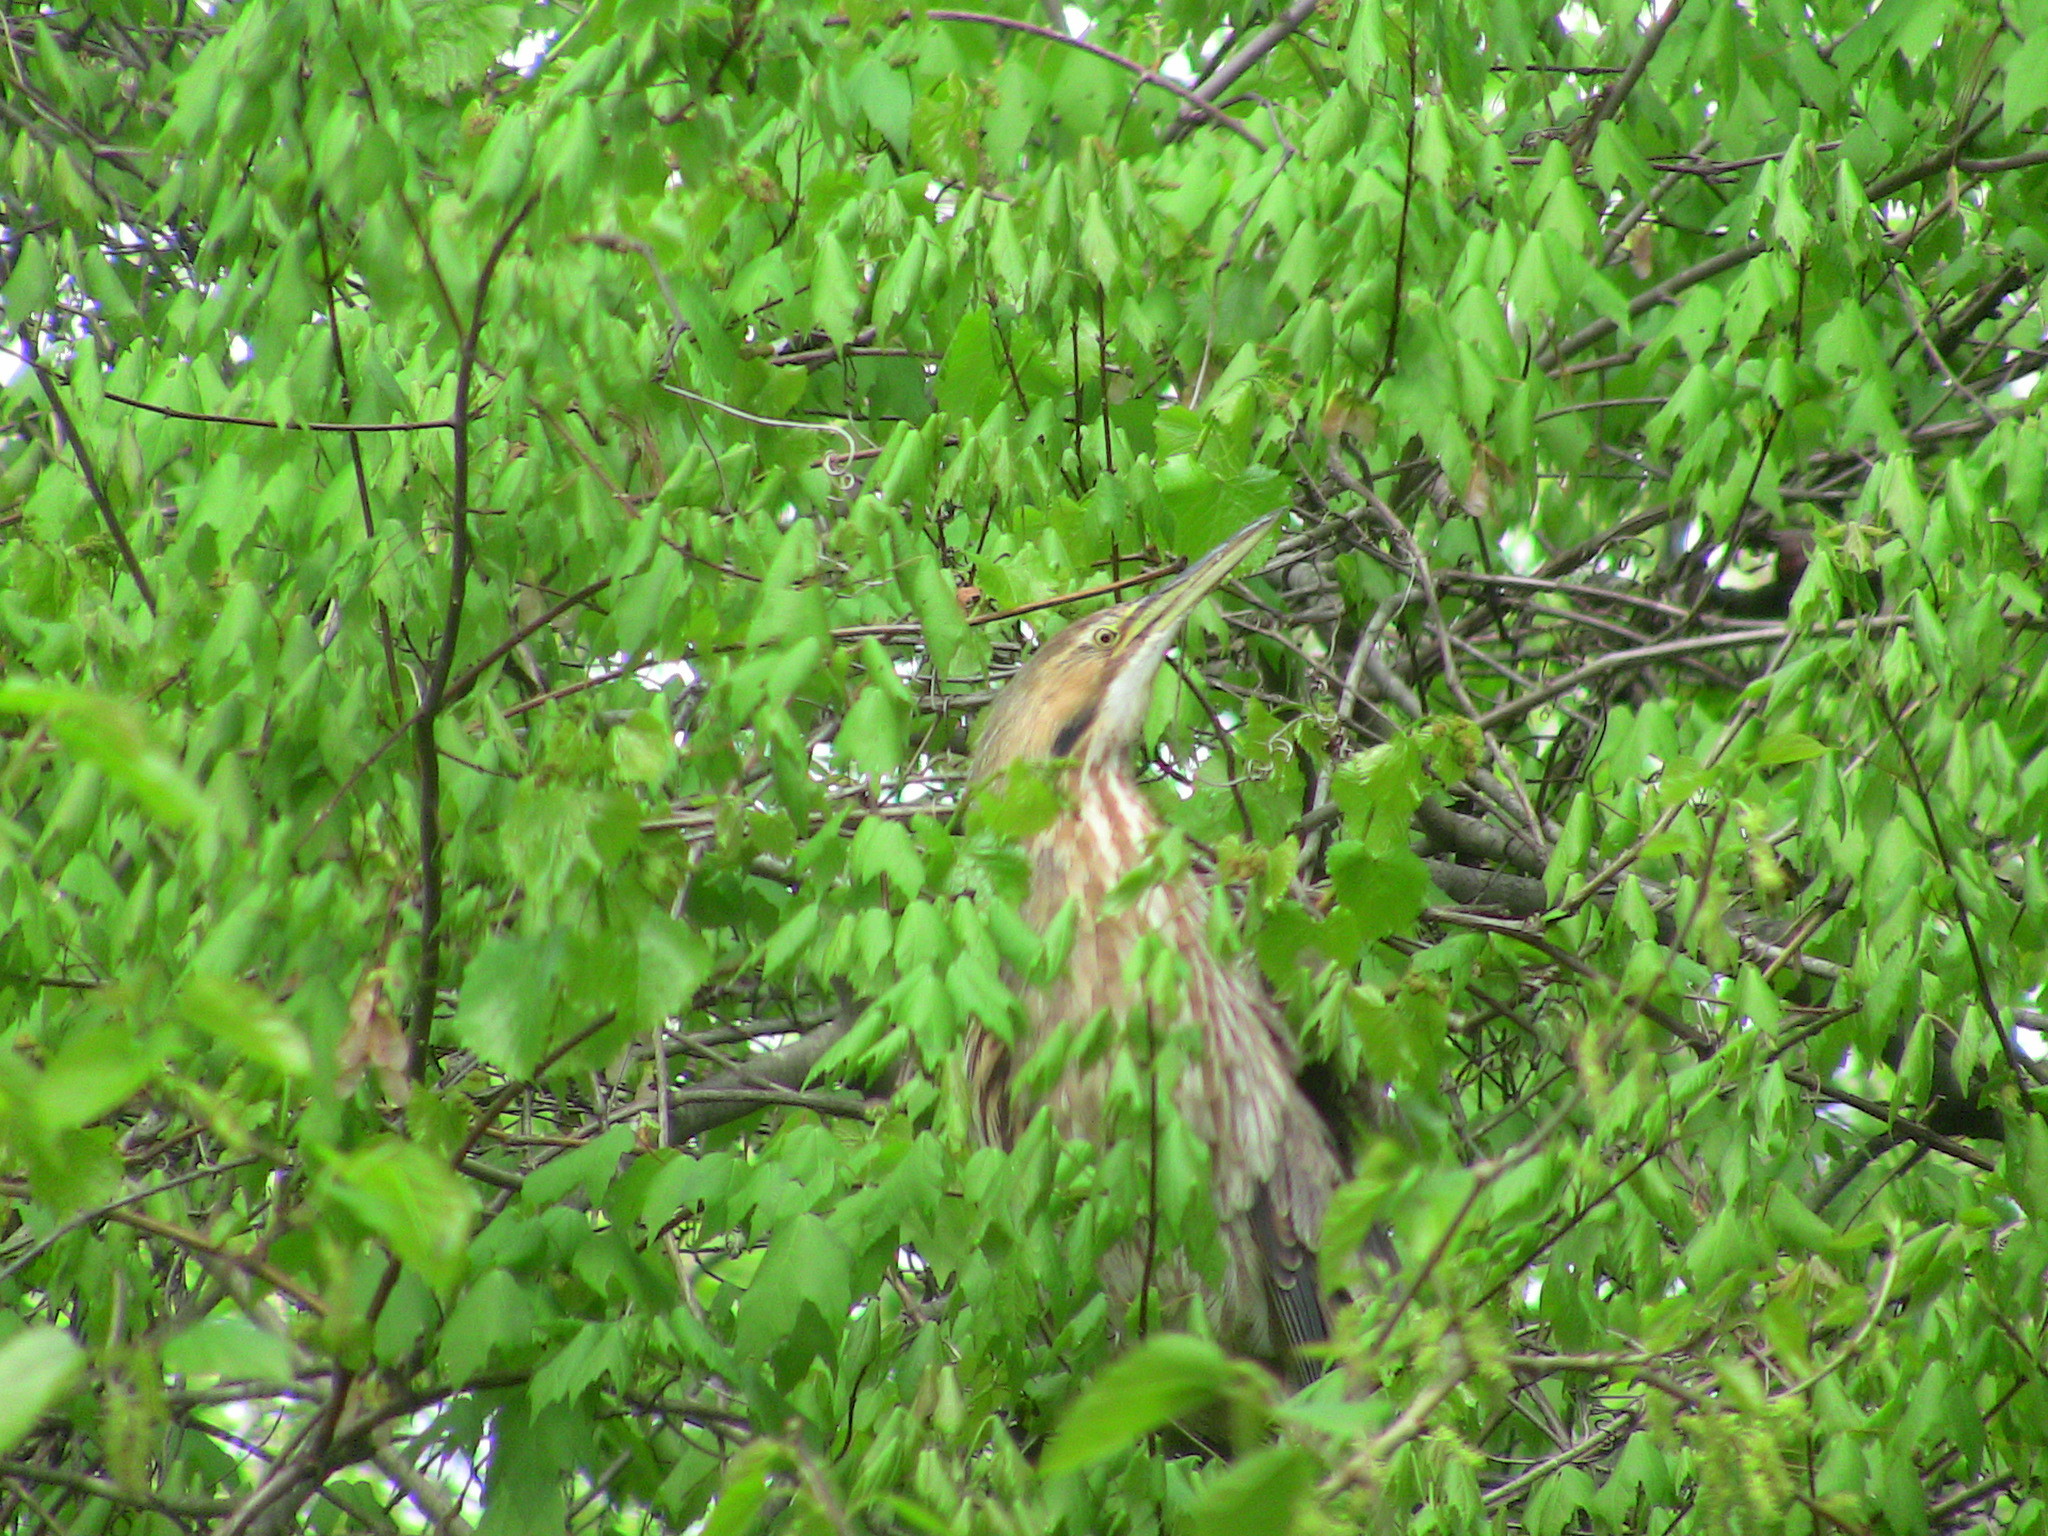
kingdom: Animalia
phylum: Chordata
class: Aves
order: Pelecaniformes
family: Ardeidae
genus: Botaurus
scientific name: Botaurus lentiginosus
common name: American bittern
